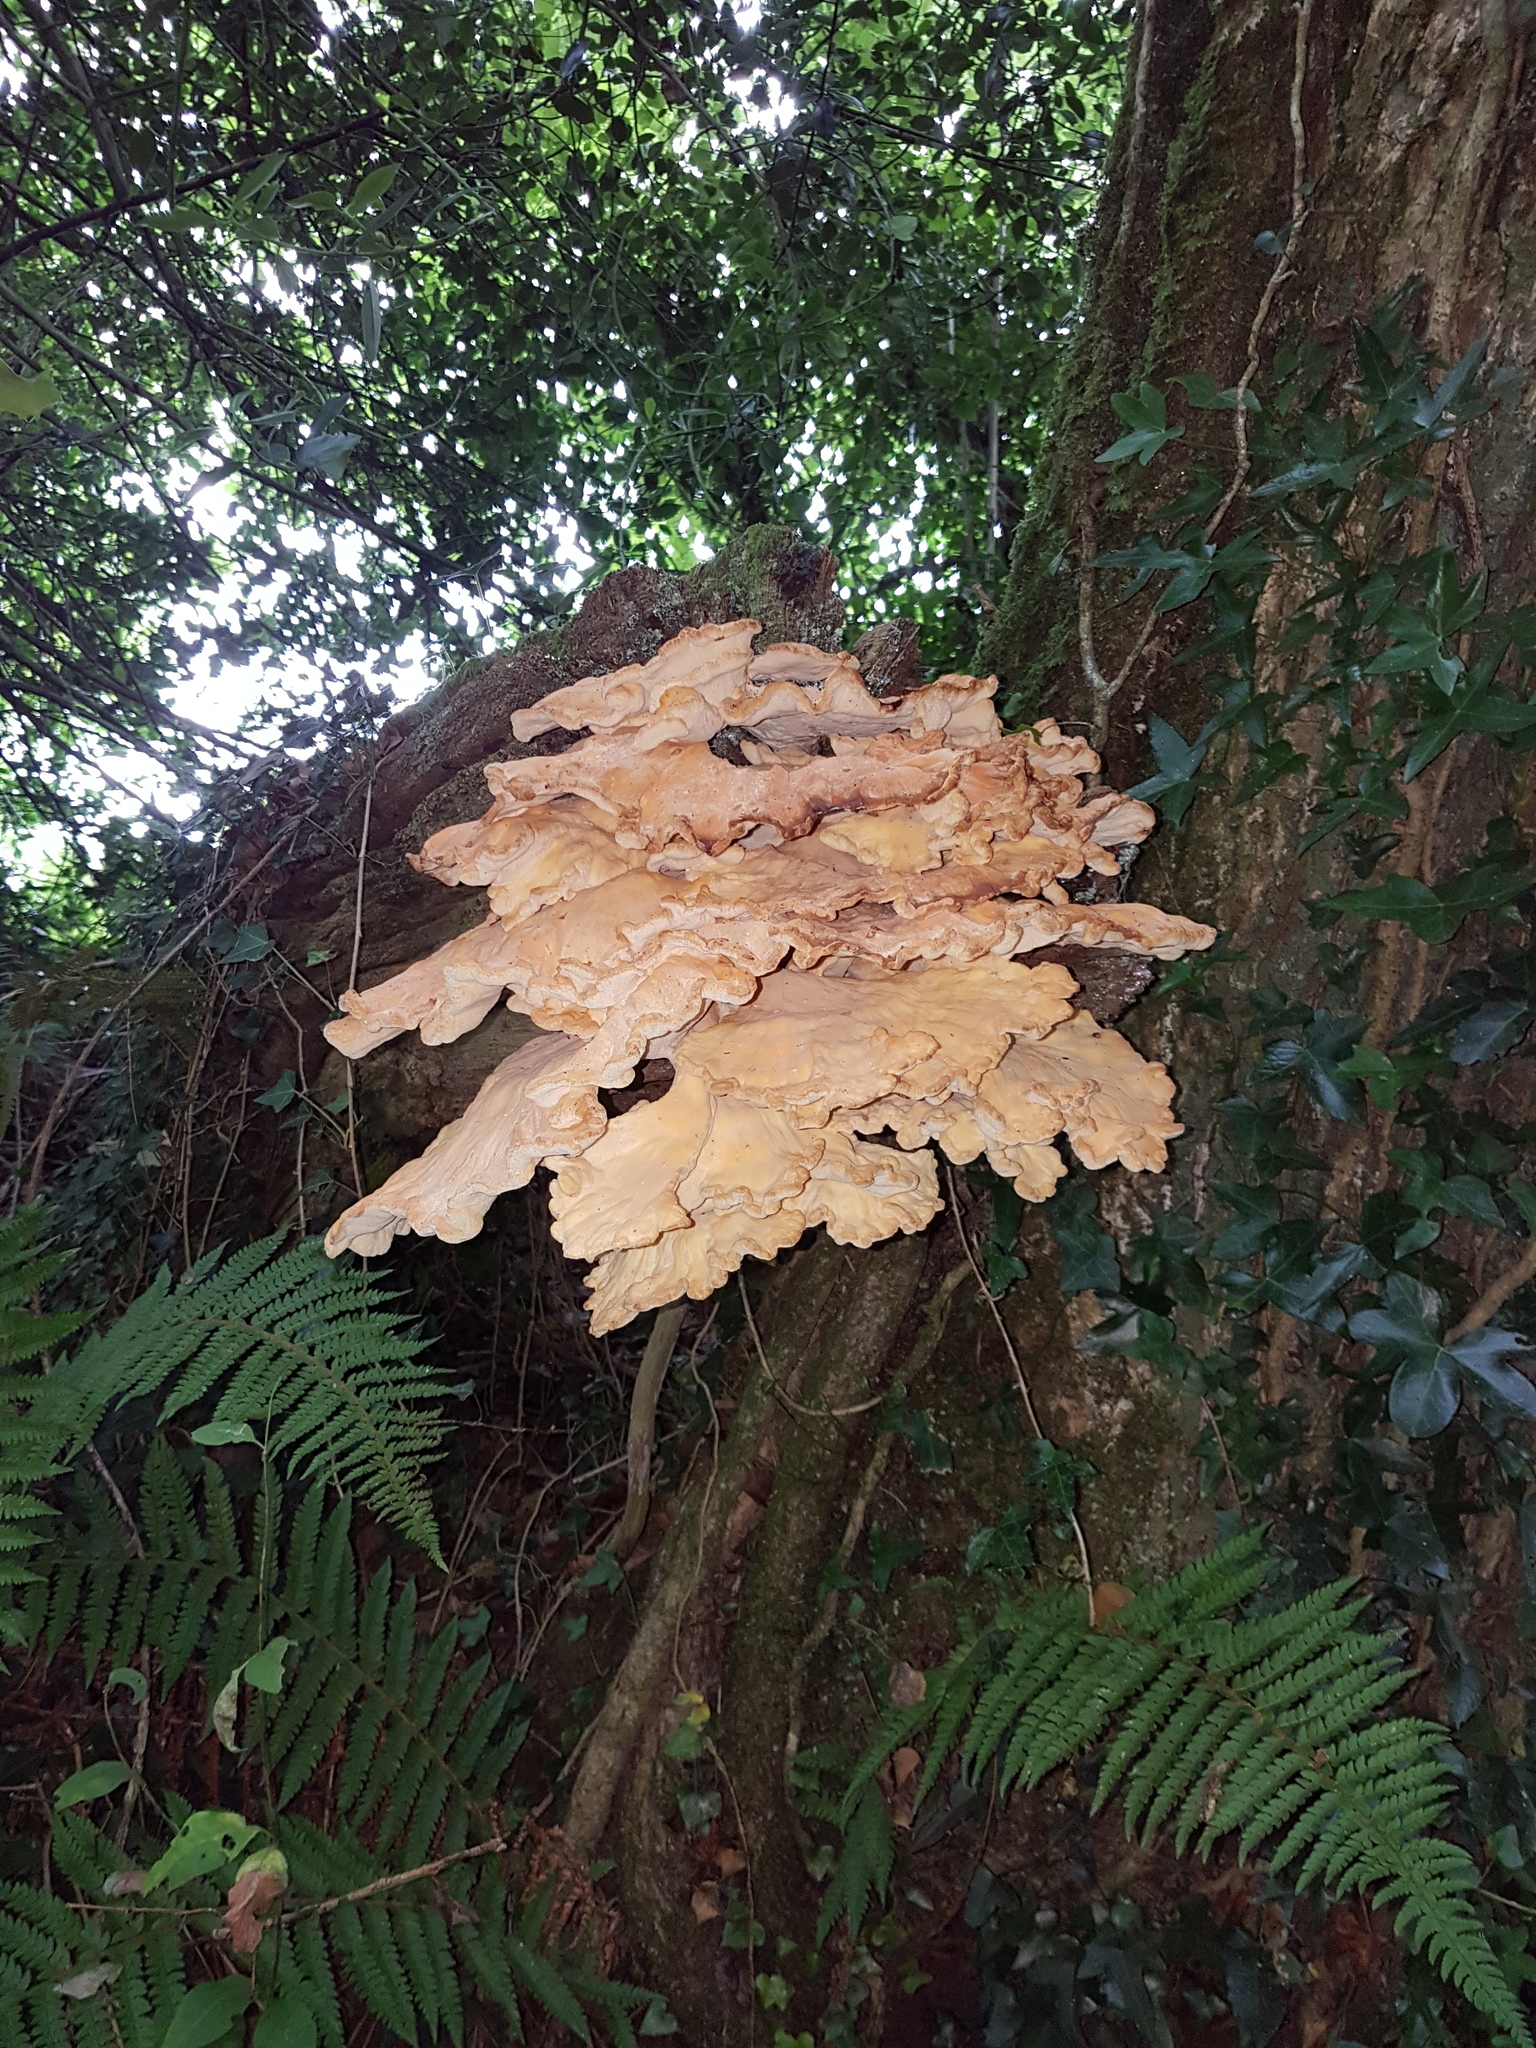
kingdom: Fungi
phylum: Basidiomycota
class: Agaricomycetes
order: Polyporales
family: Laetiporaceae
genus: Laetiporus
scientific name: Laetiporus sulphureus
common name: Chicken of the woods
